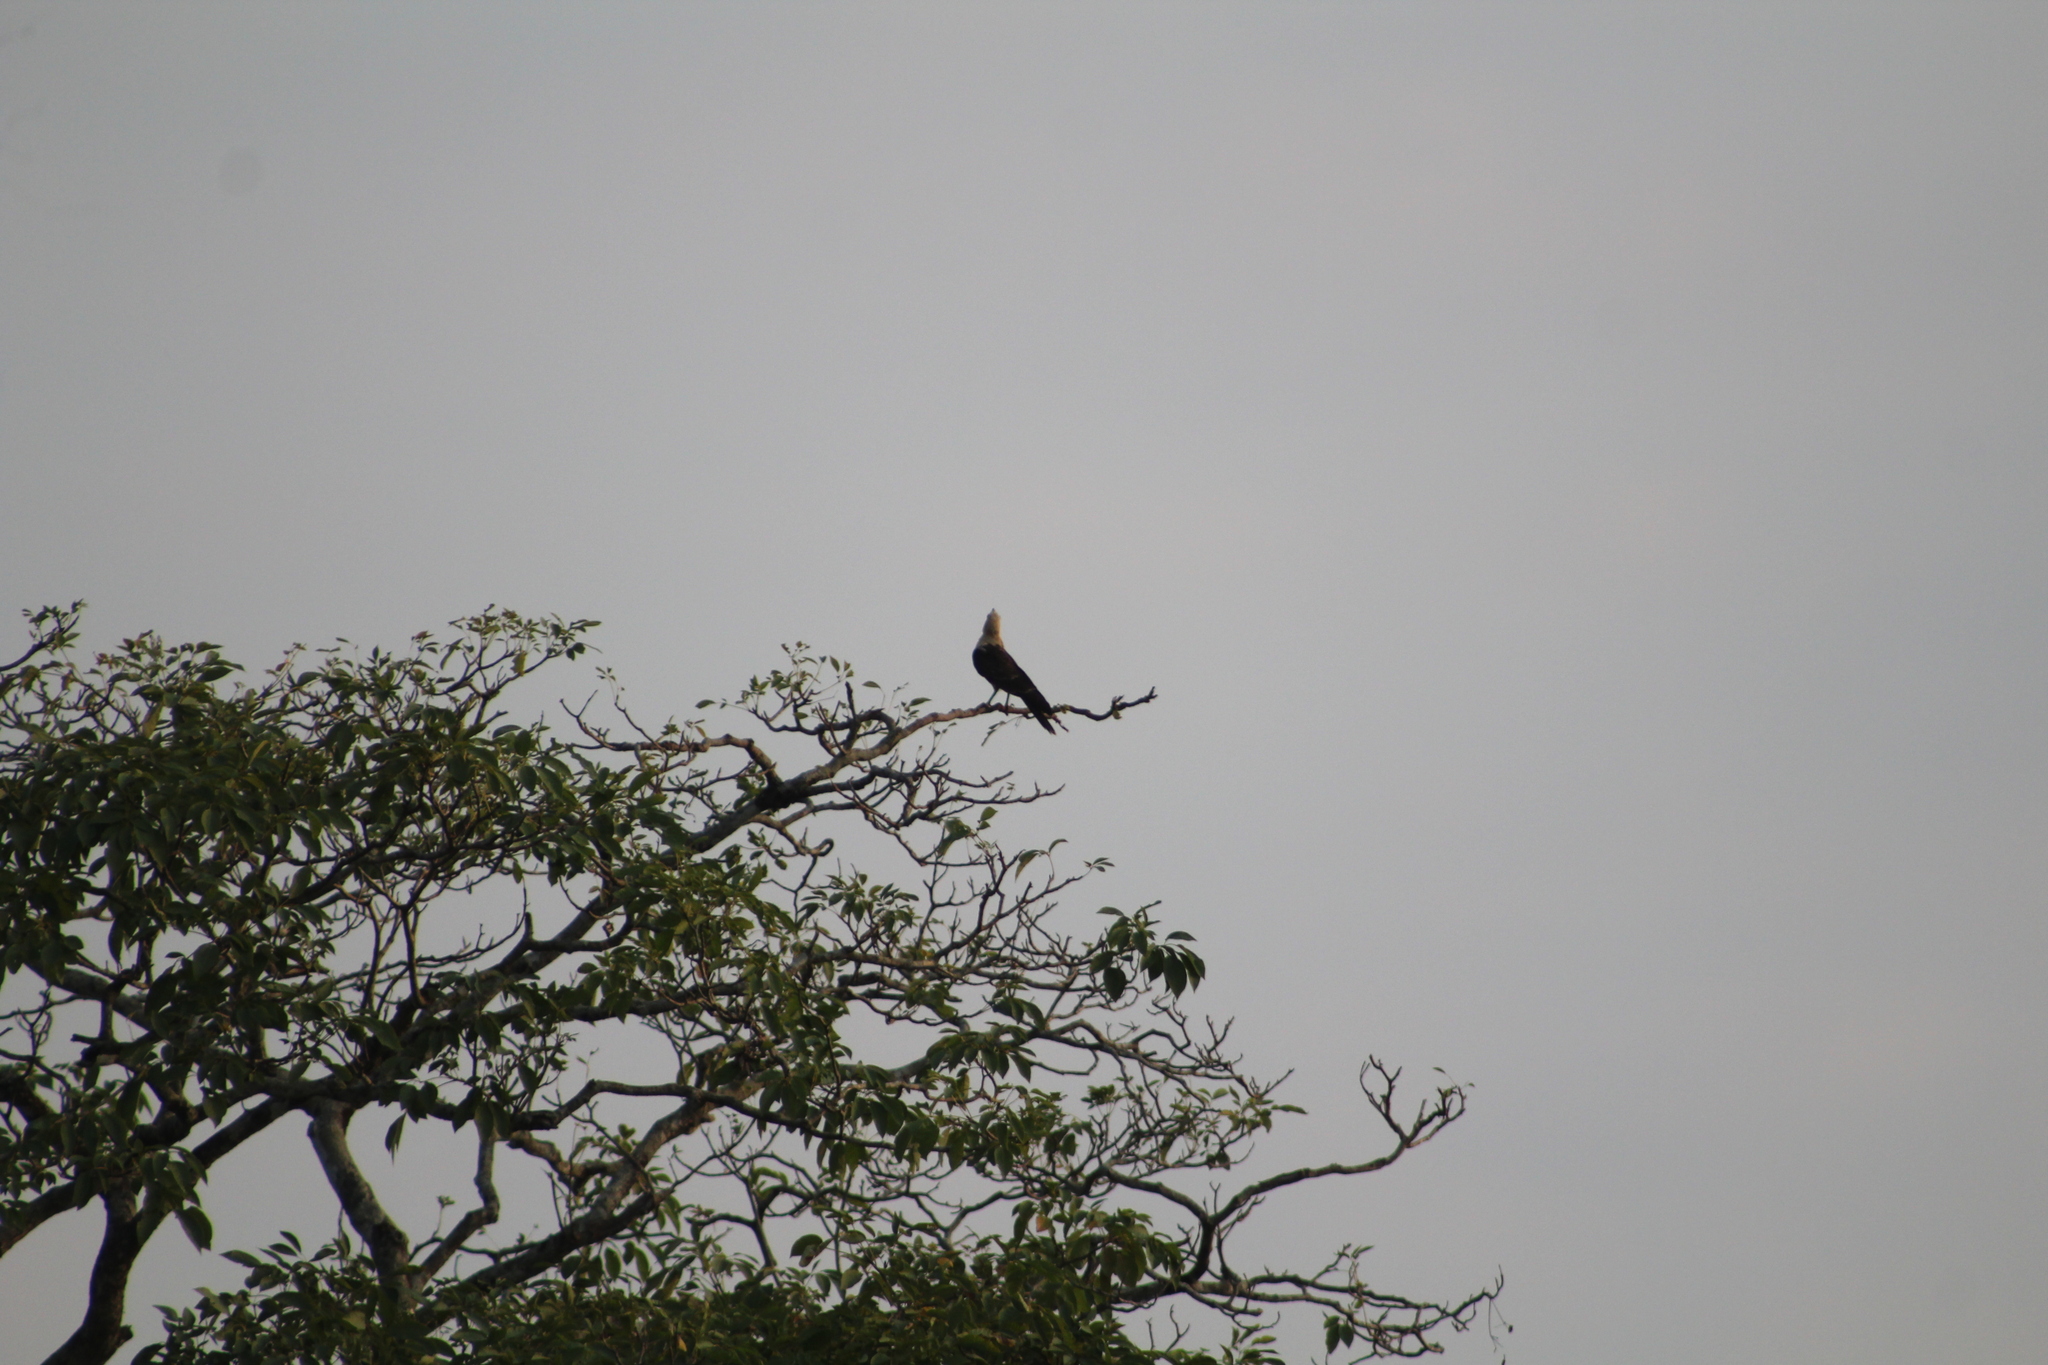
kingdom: Animalia
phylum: Chordata
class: Aves
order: Falconiformes
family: Falconidae
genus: Daptrius
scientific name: Daptrius
